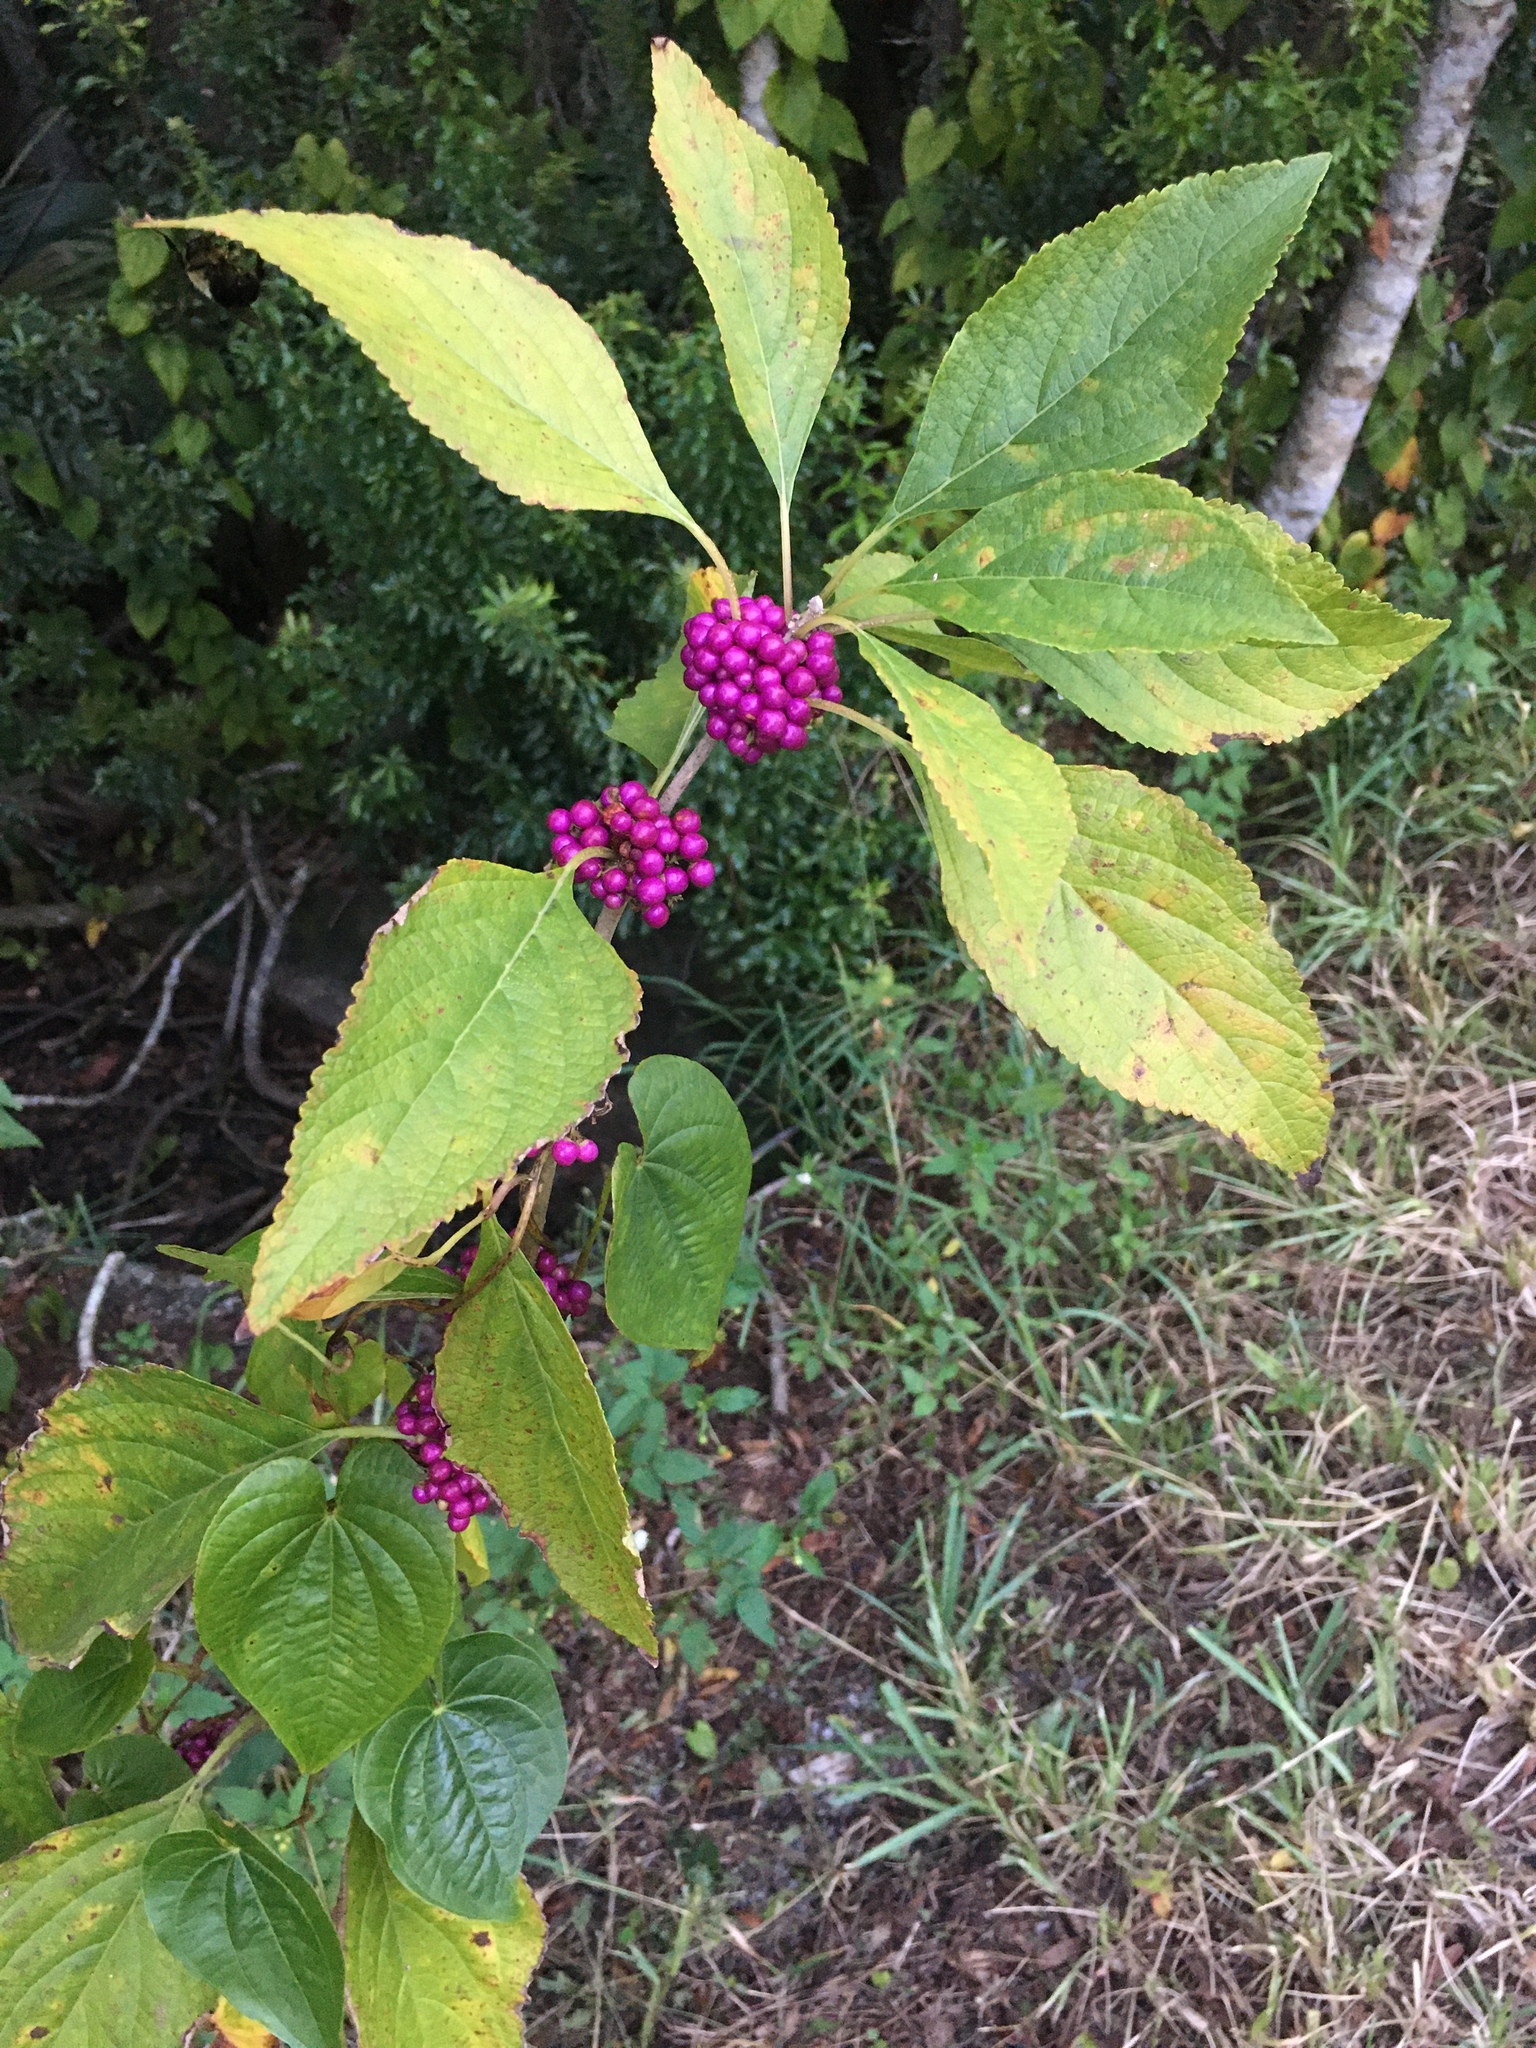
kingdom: Plantae
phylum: Tracheophyta
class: Magnoliopsida
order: Lamiales
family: Lamiaceae
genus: Callicarpa
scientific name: Callicarpa americana
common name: American beautyberry
